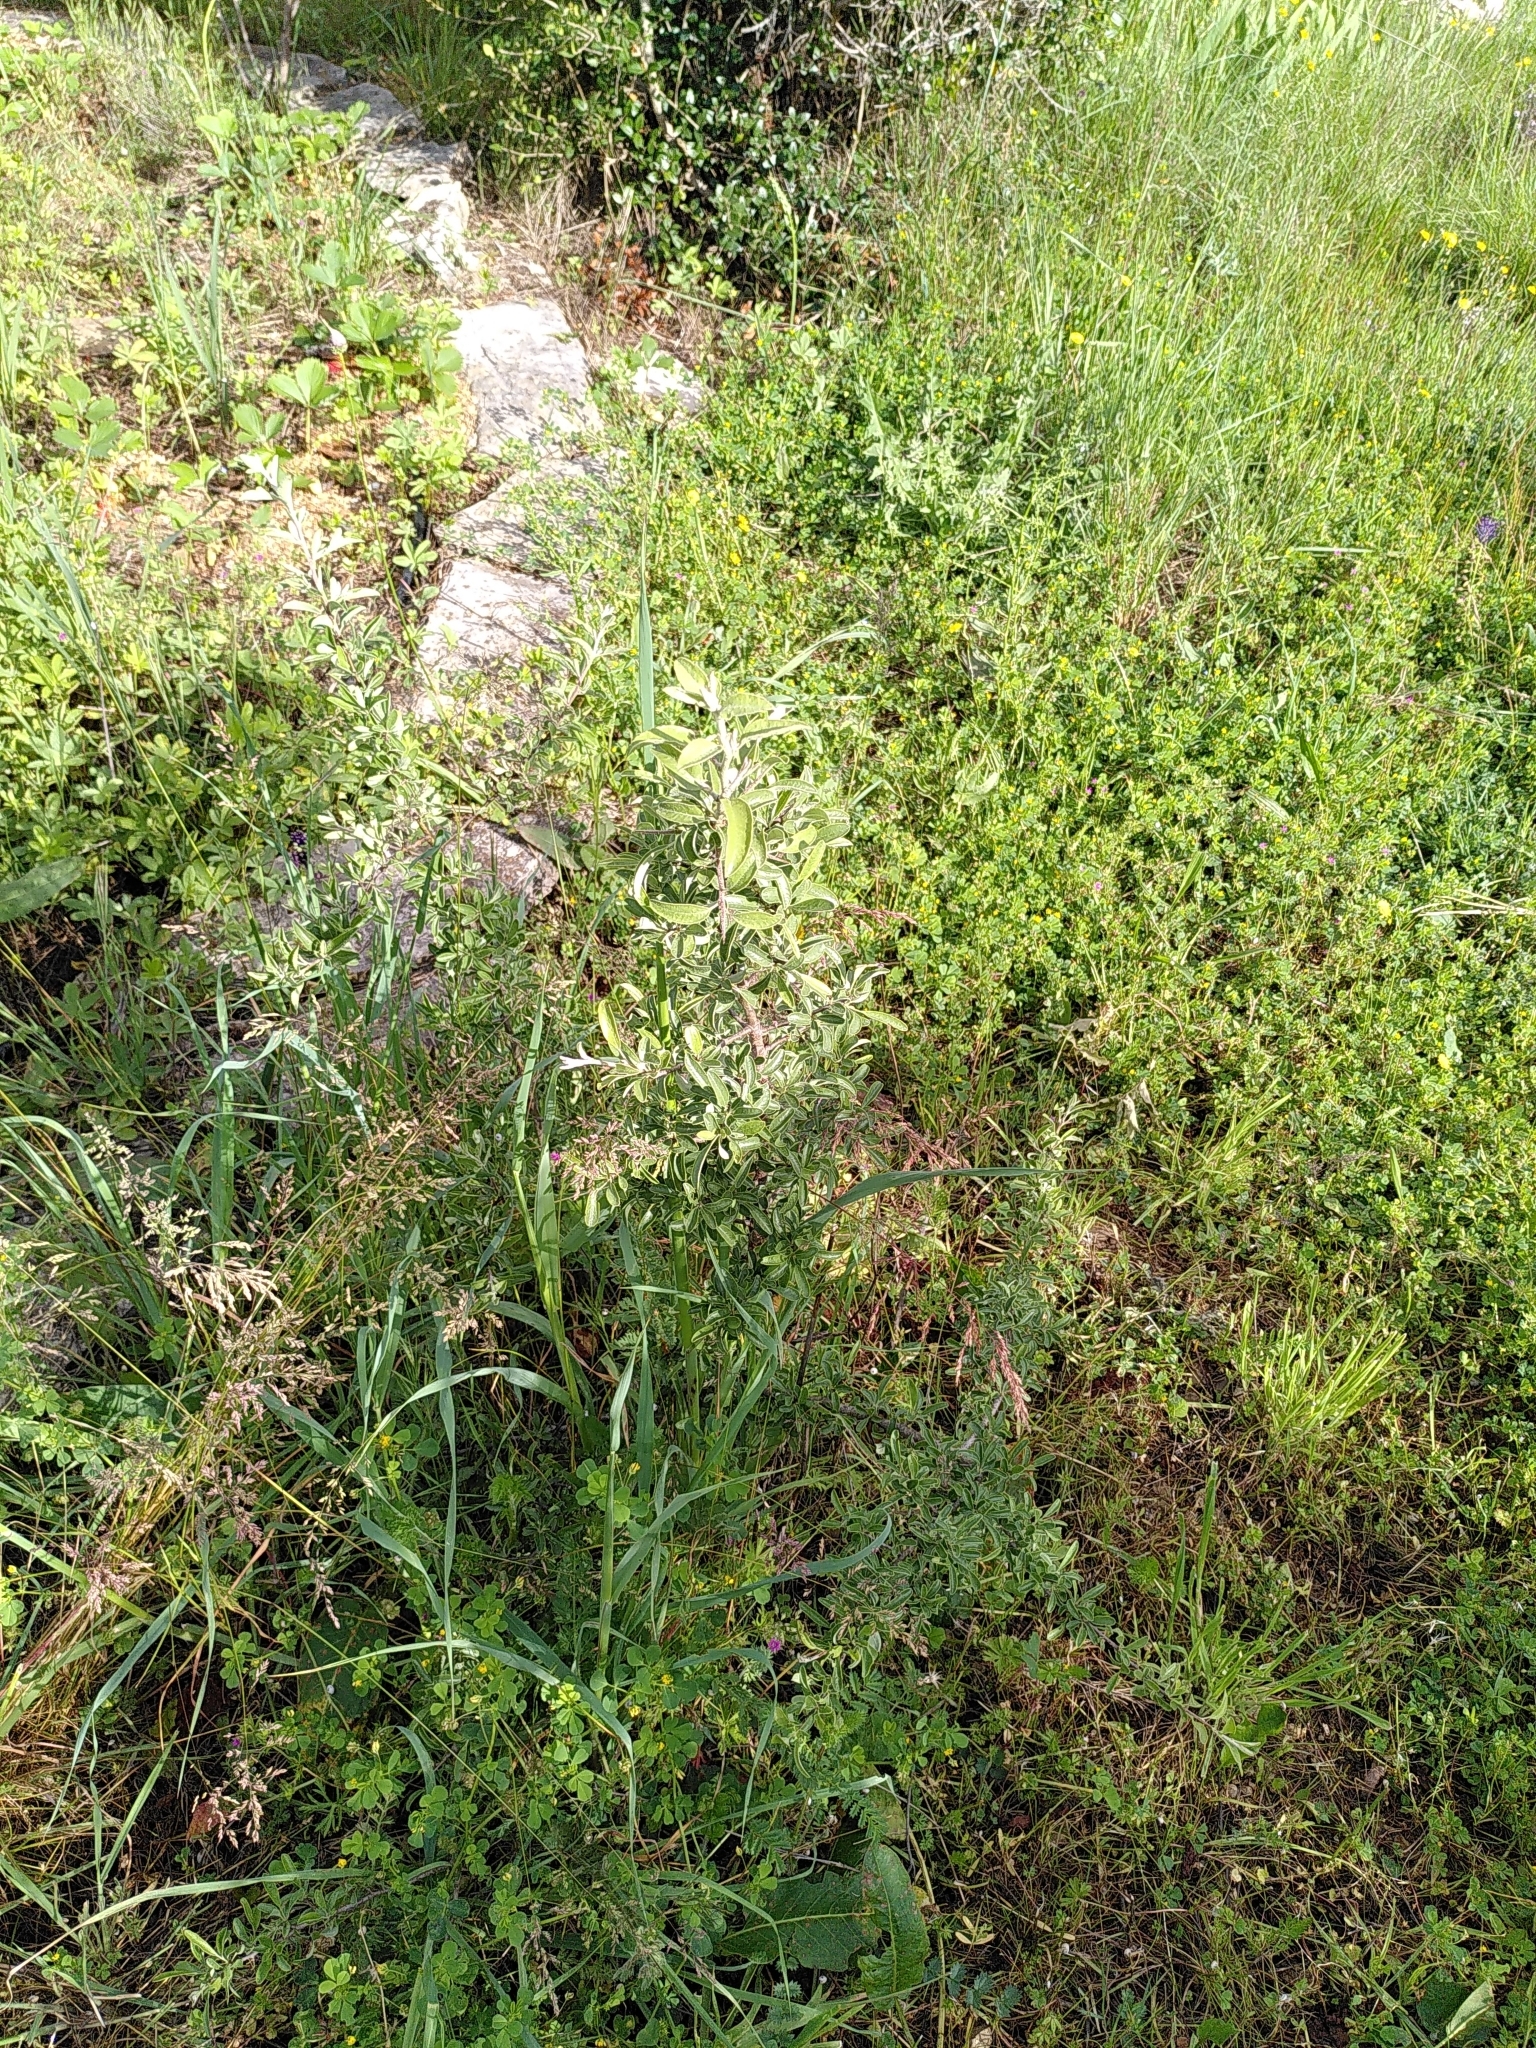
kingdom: Plantae
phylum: Tracheophyta
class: Magnoliopsida
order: Rosales
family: Rosaceae
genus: Pyrus
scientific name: Pyrus spinosa
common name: Almond-leaf pear
